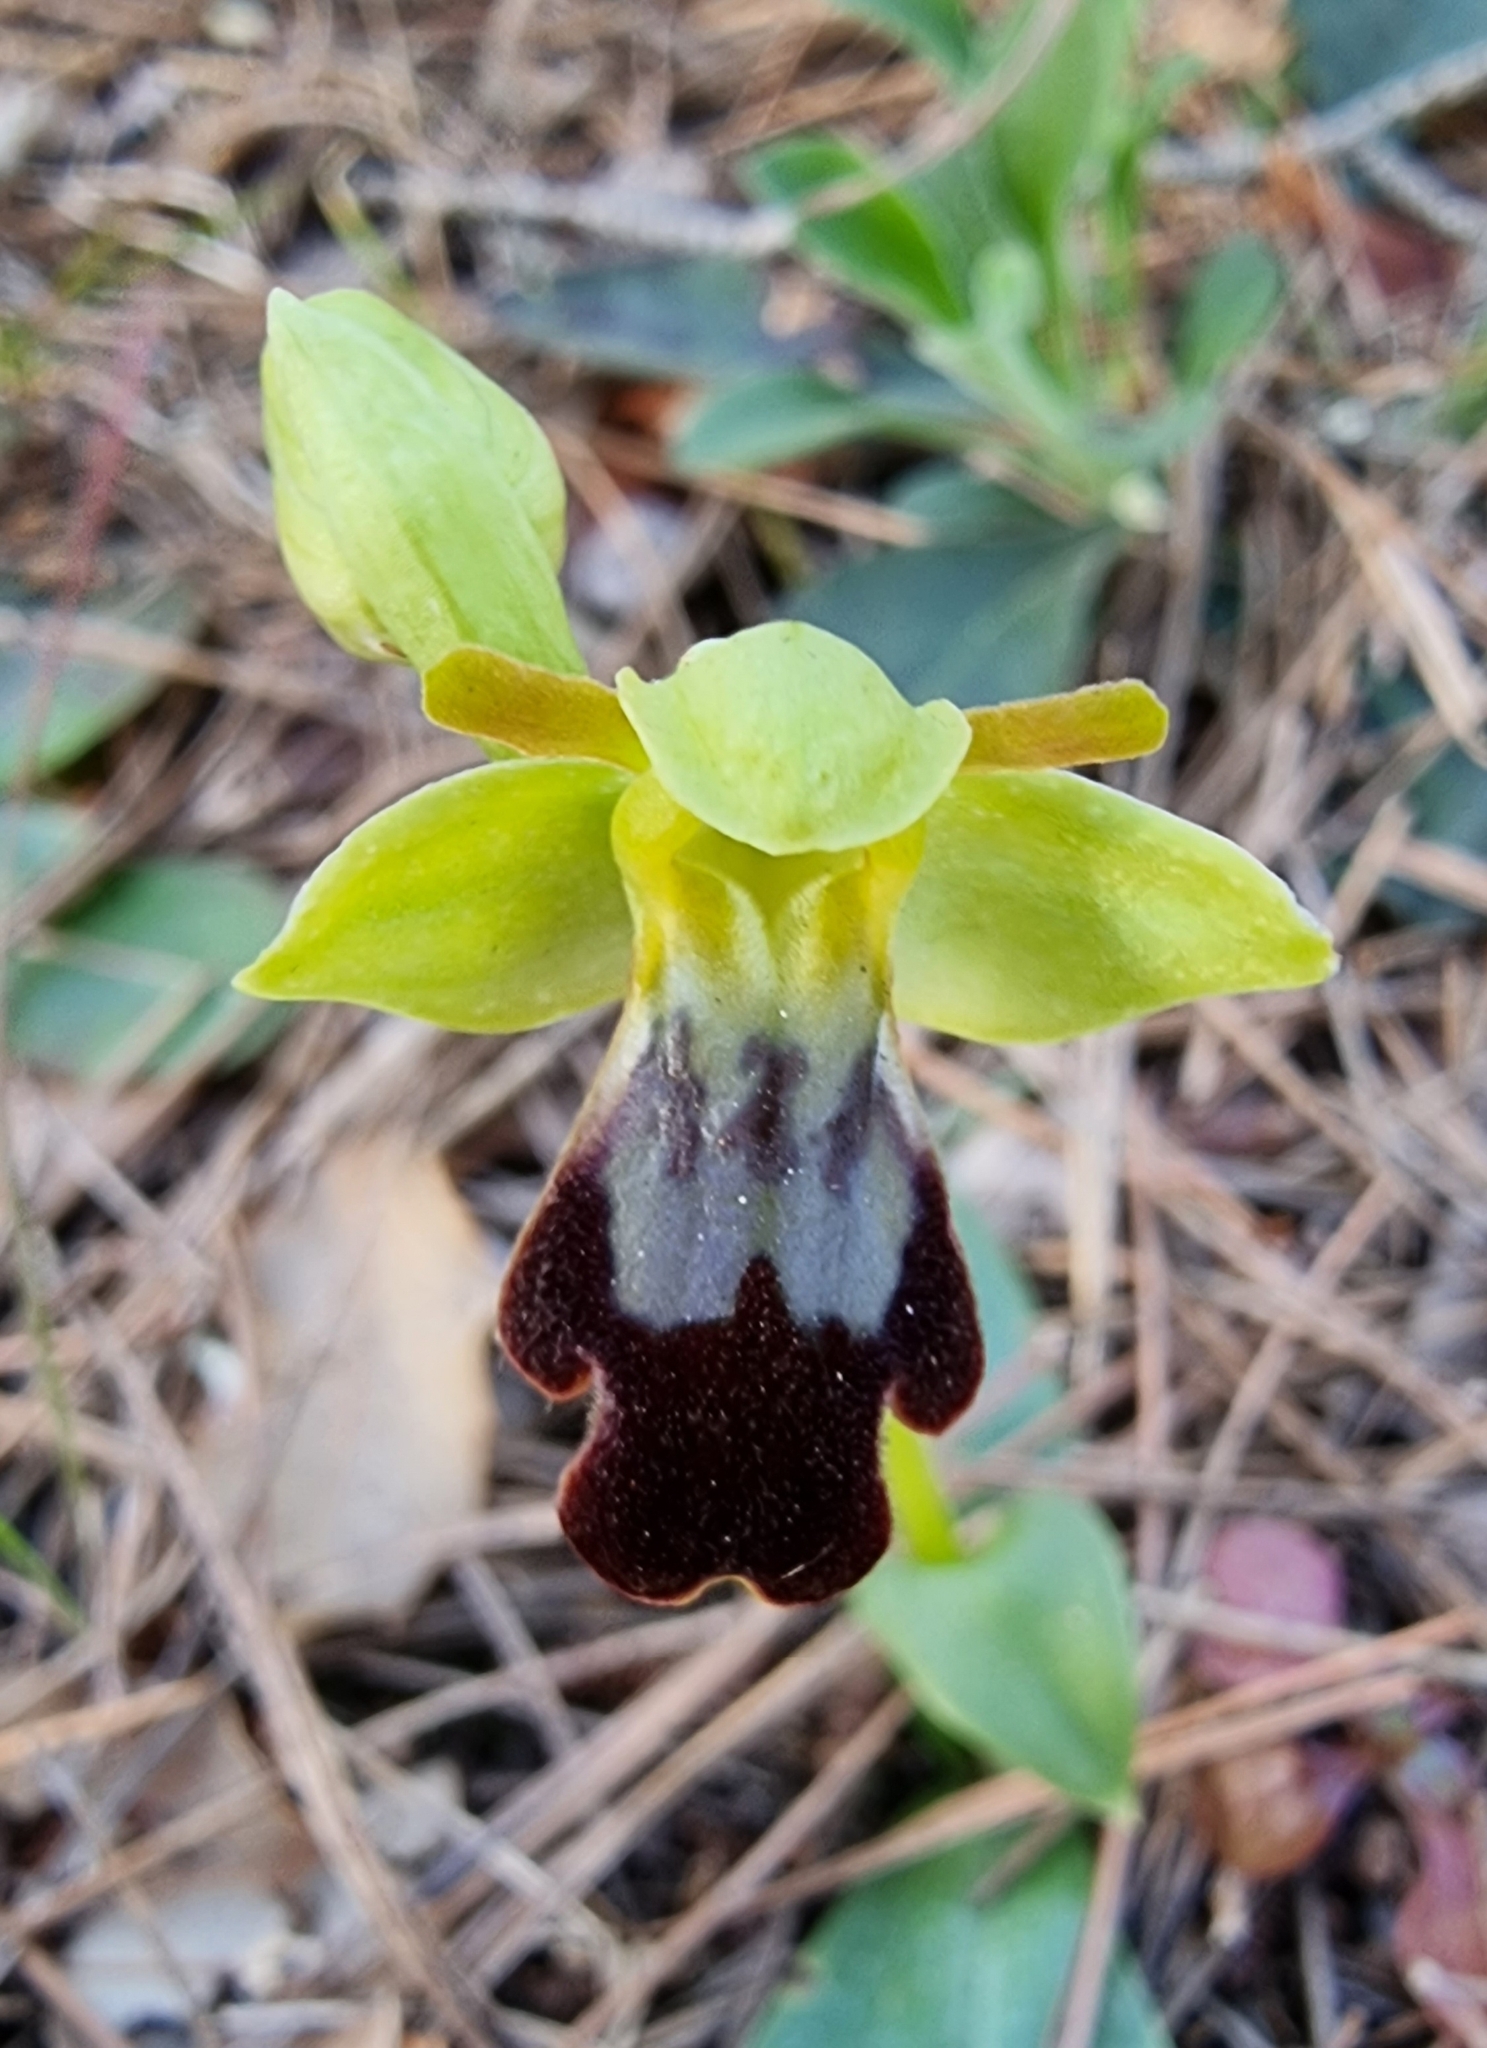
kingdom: Plantae
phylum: Tracheophyta
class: Liliopsida
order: Asparagales
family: Orchidaceae
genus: Ophrys
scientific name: Ophrys fusca
